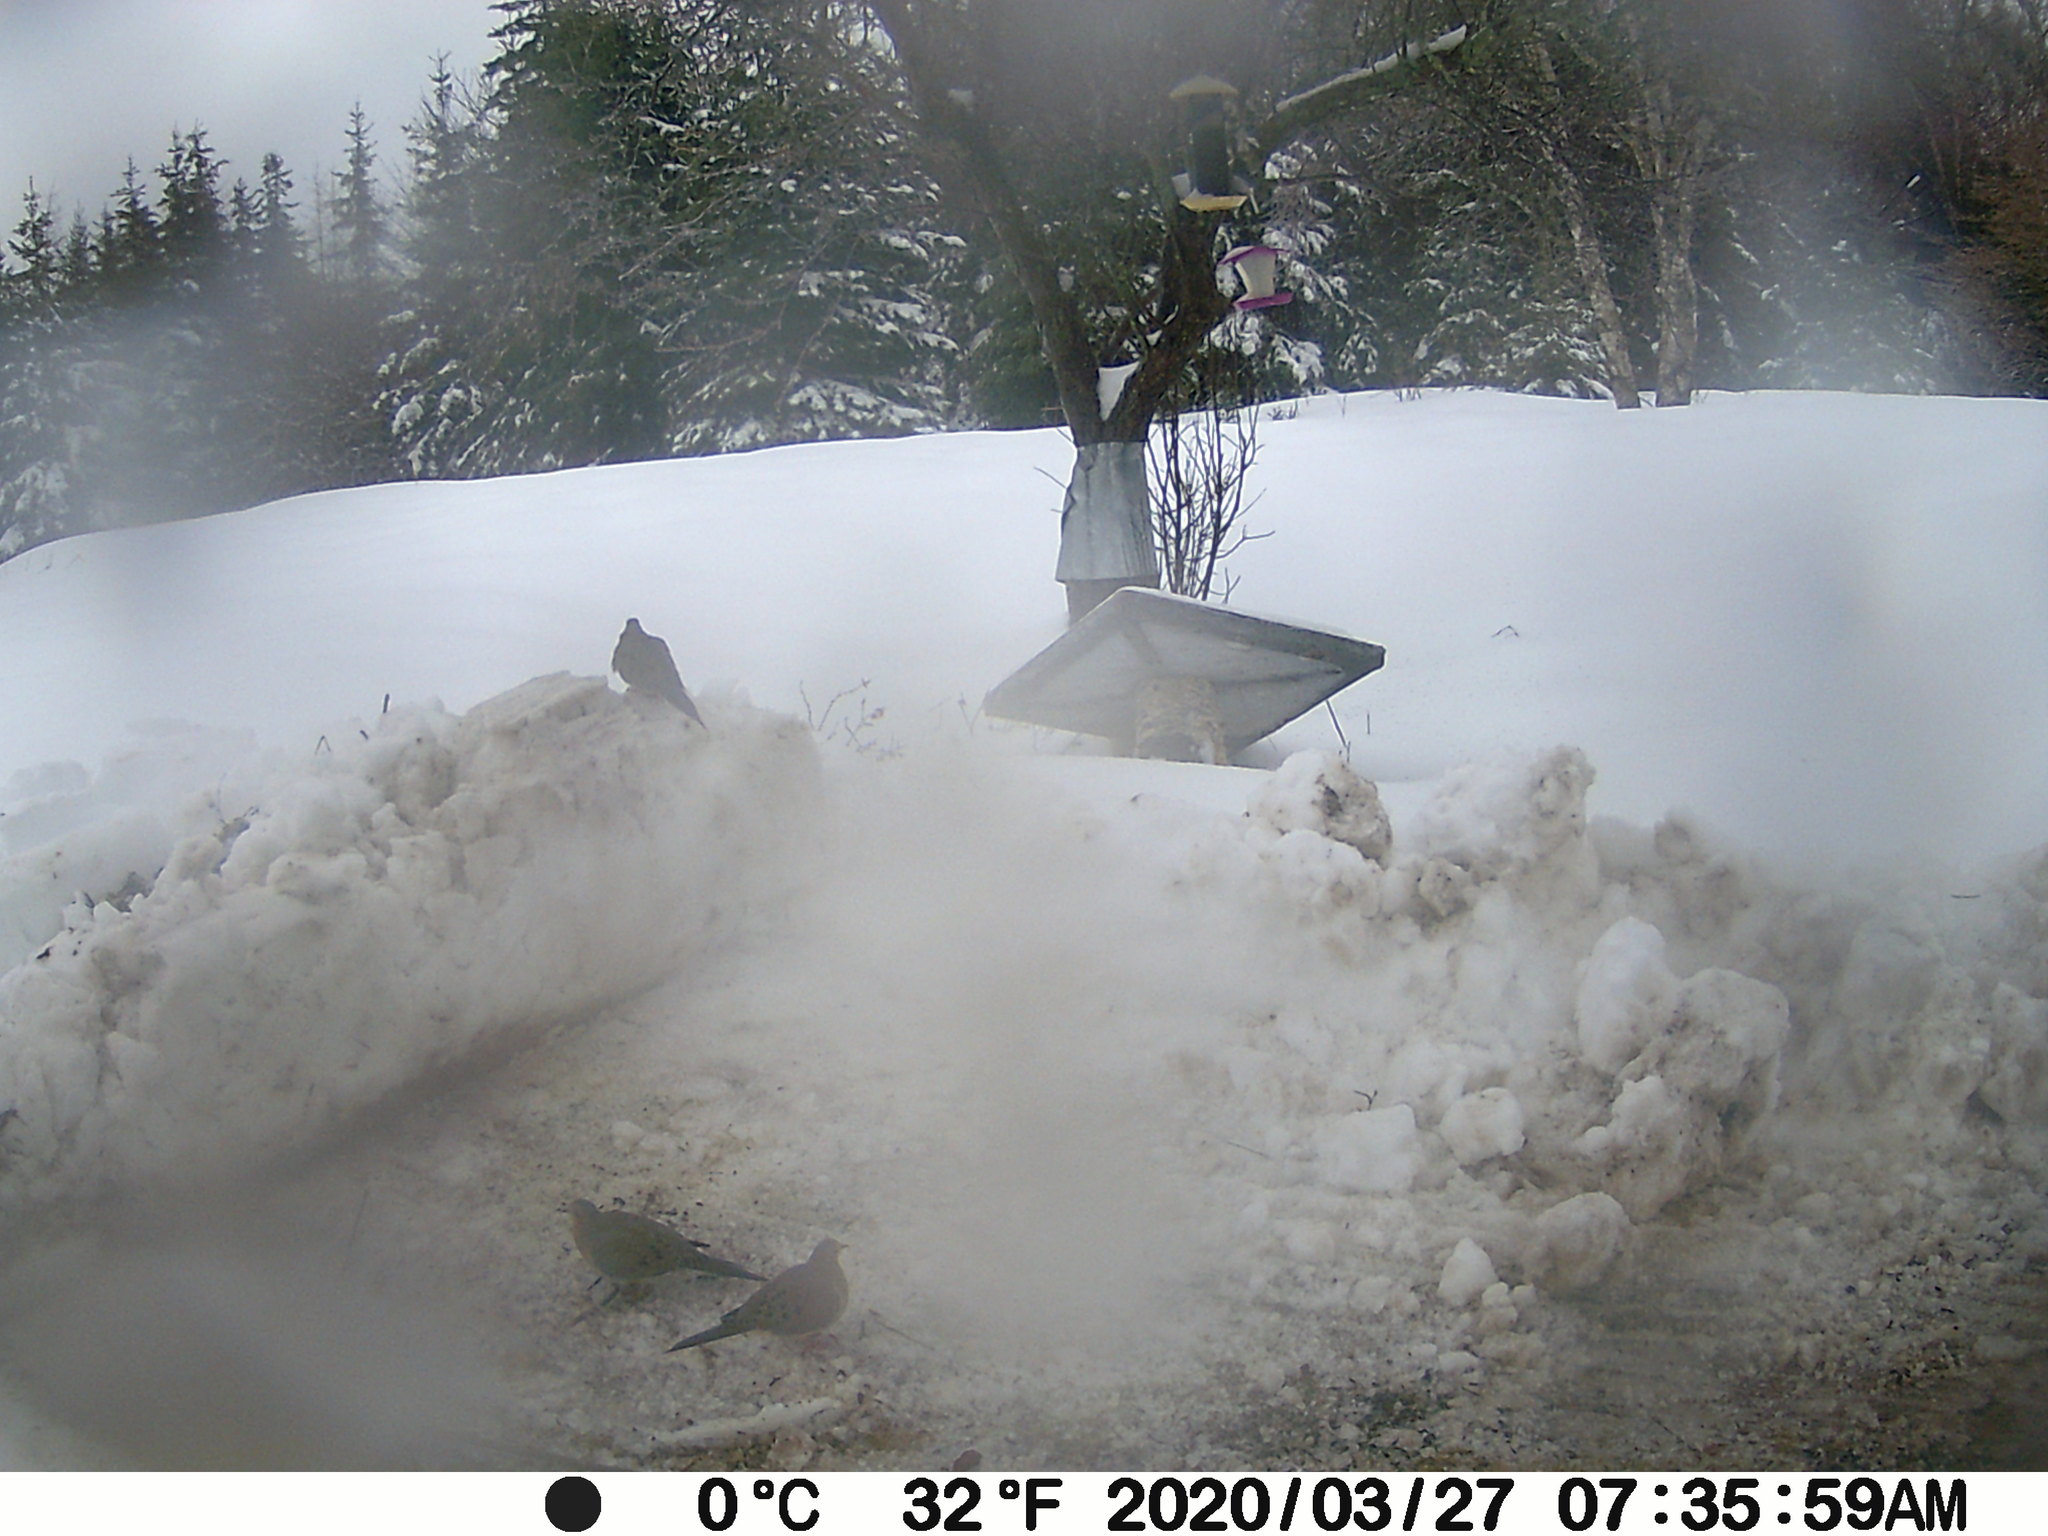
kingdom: Animalia
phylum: Chordata
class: Aves
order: Columbiformes
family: Columbidae
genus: Zenaida
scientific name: Zenaida macroura
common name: Mourning dove
